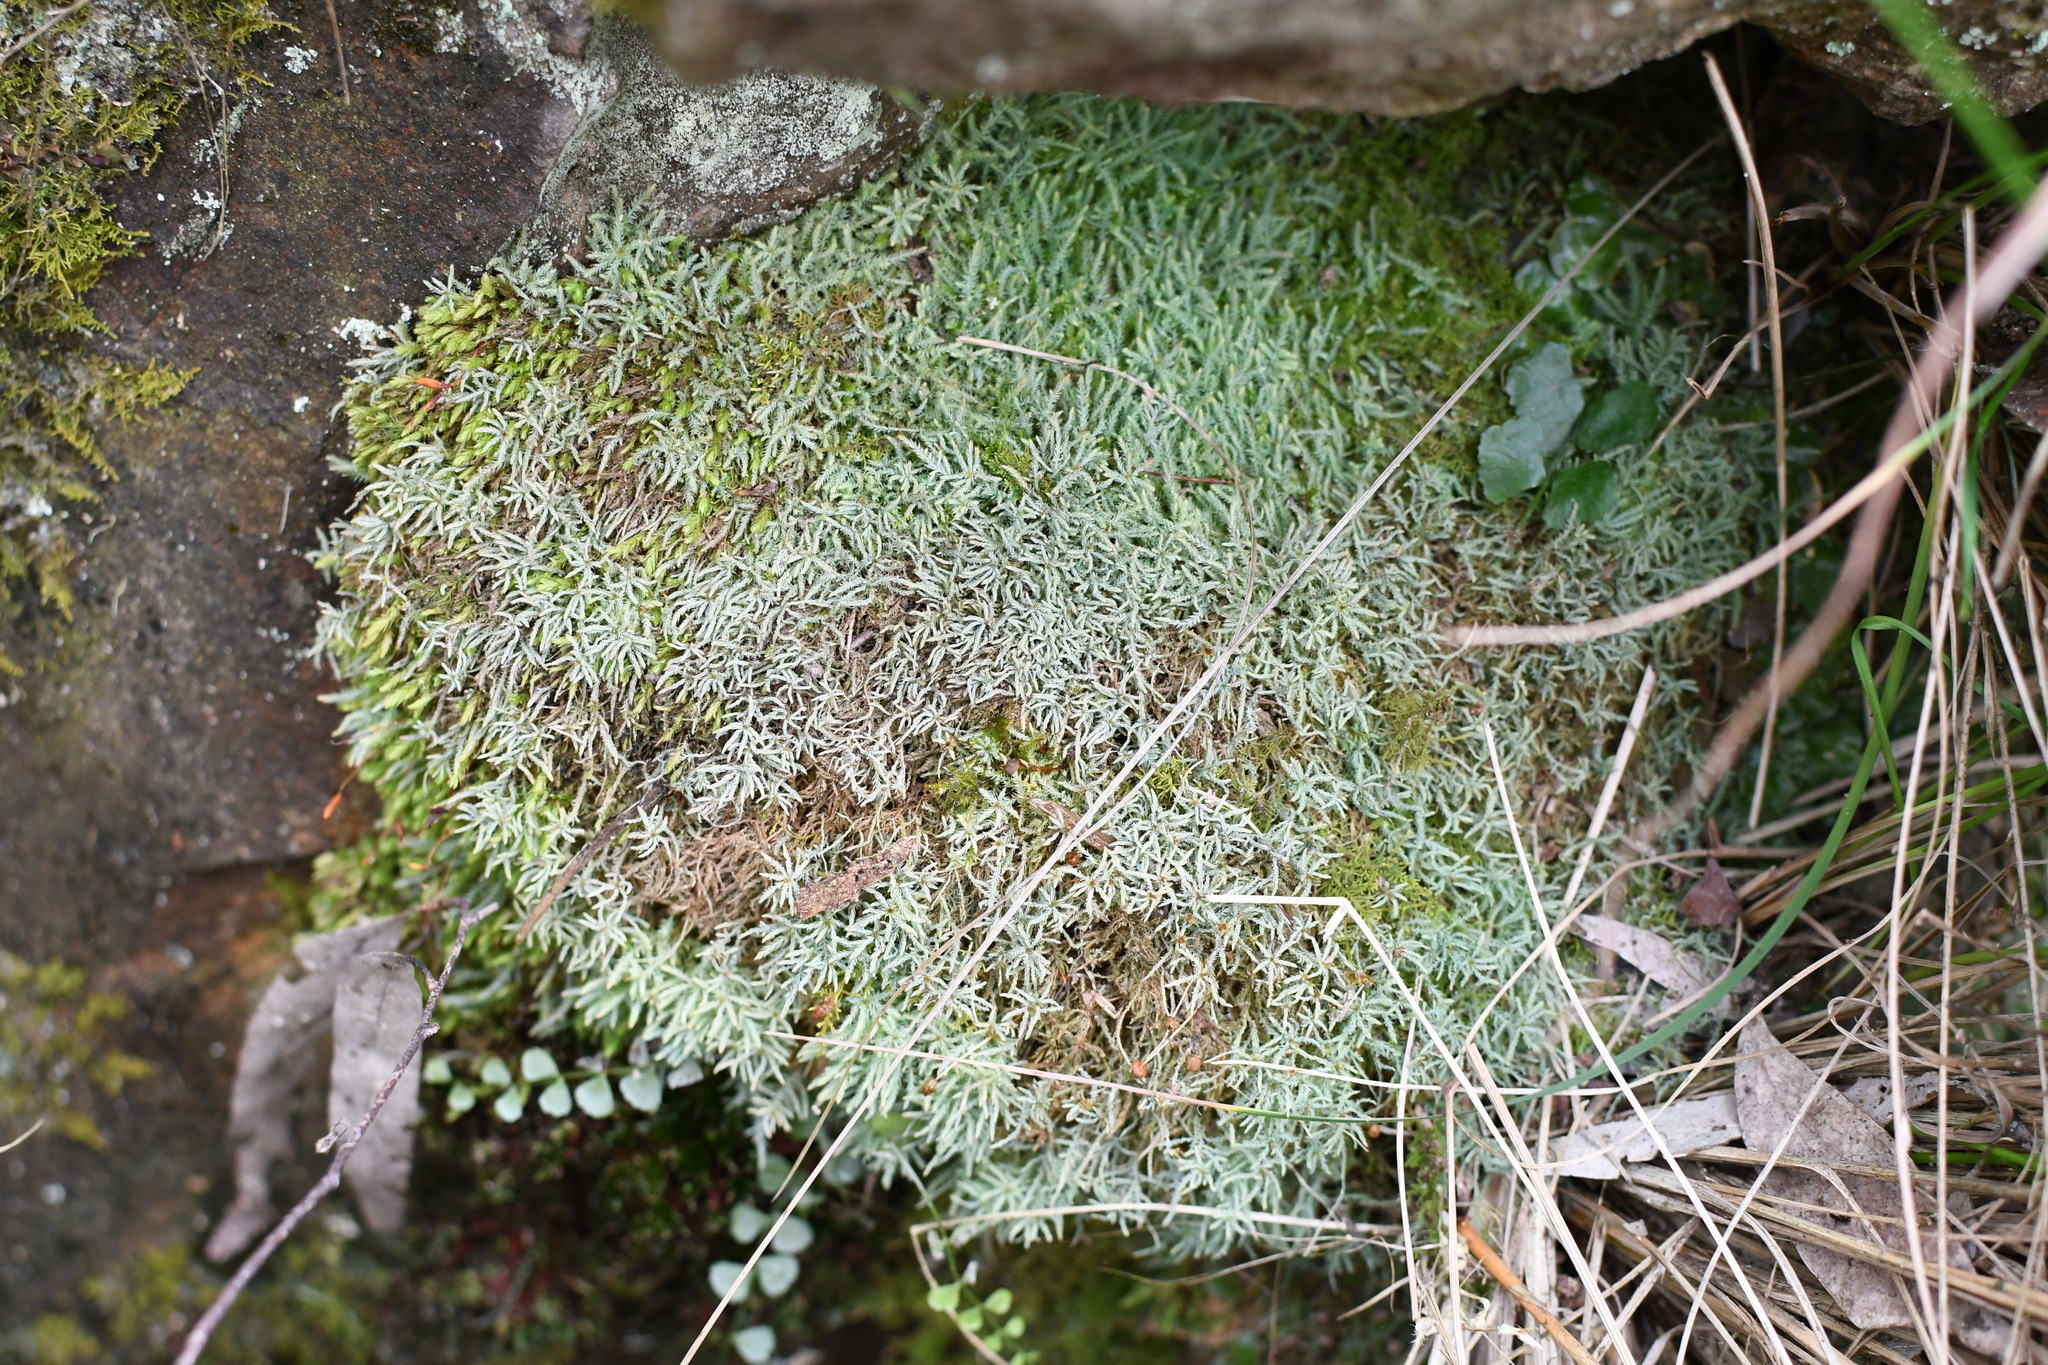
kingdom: Plantae
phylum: Bryophyta
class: Bryopsida
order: Bartramiales
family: Bartramiaceae
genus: Philonotis
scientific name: Philonotis scabrifolia
